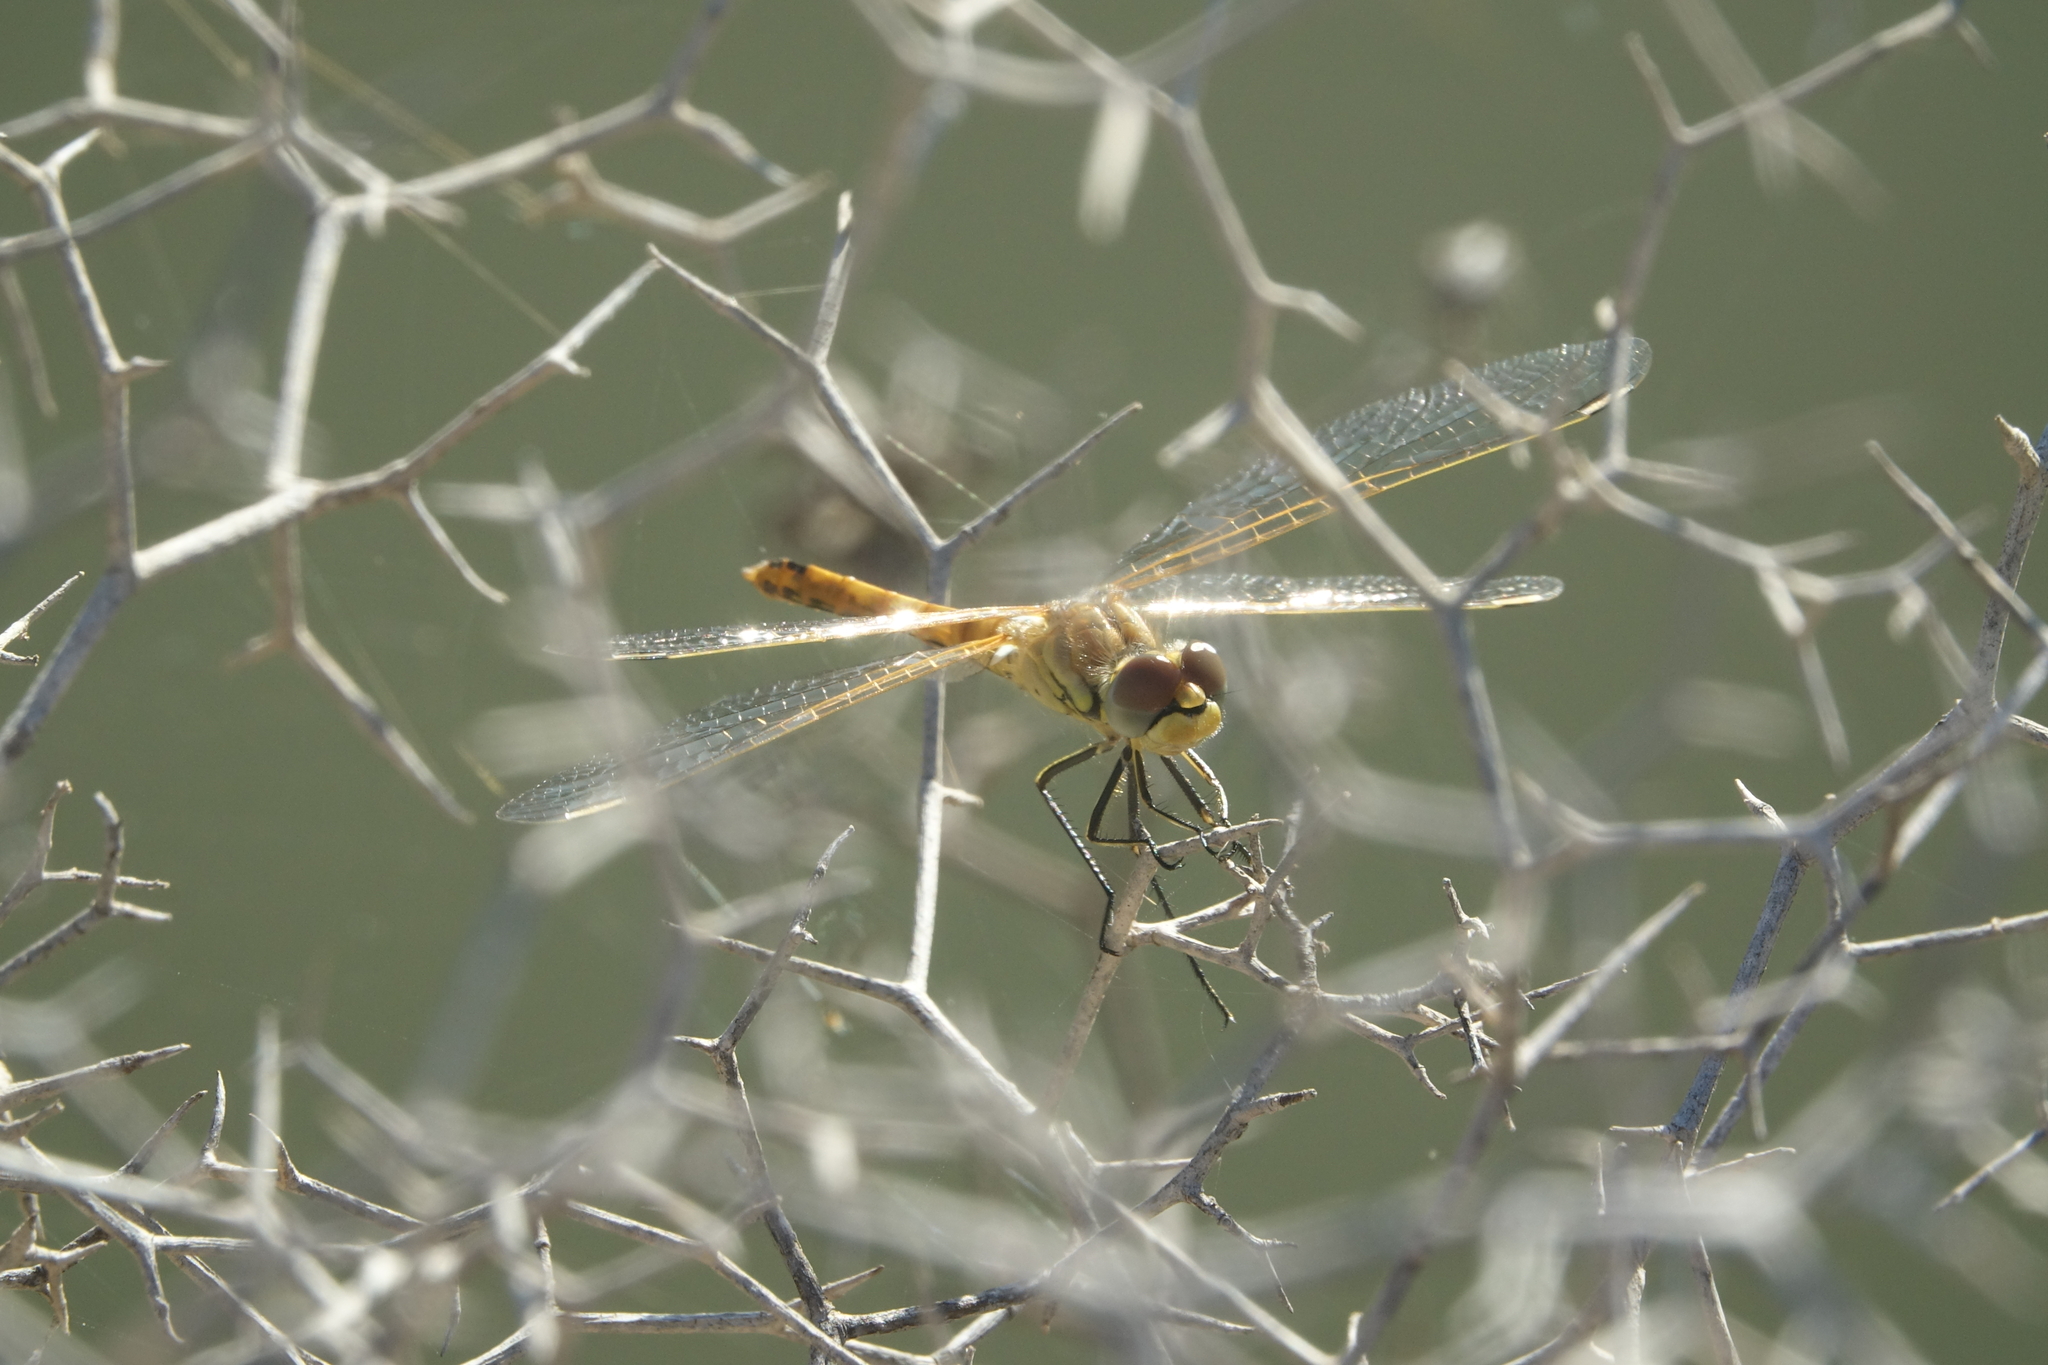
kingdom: Animalia
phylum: Arthropoda
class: Insecta
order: Odonata
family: Libellulidae
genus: Sympetrum
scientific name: Sympetrum fonscolombii
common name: Red-veined darter
